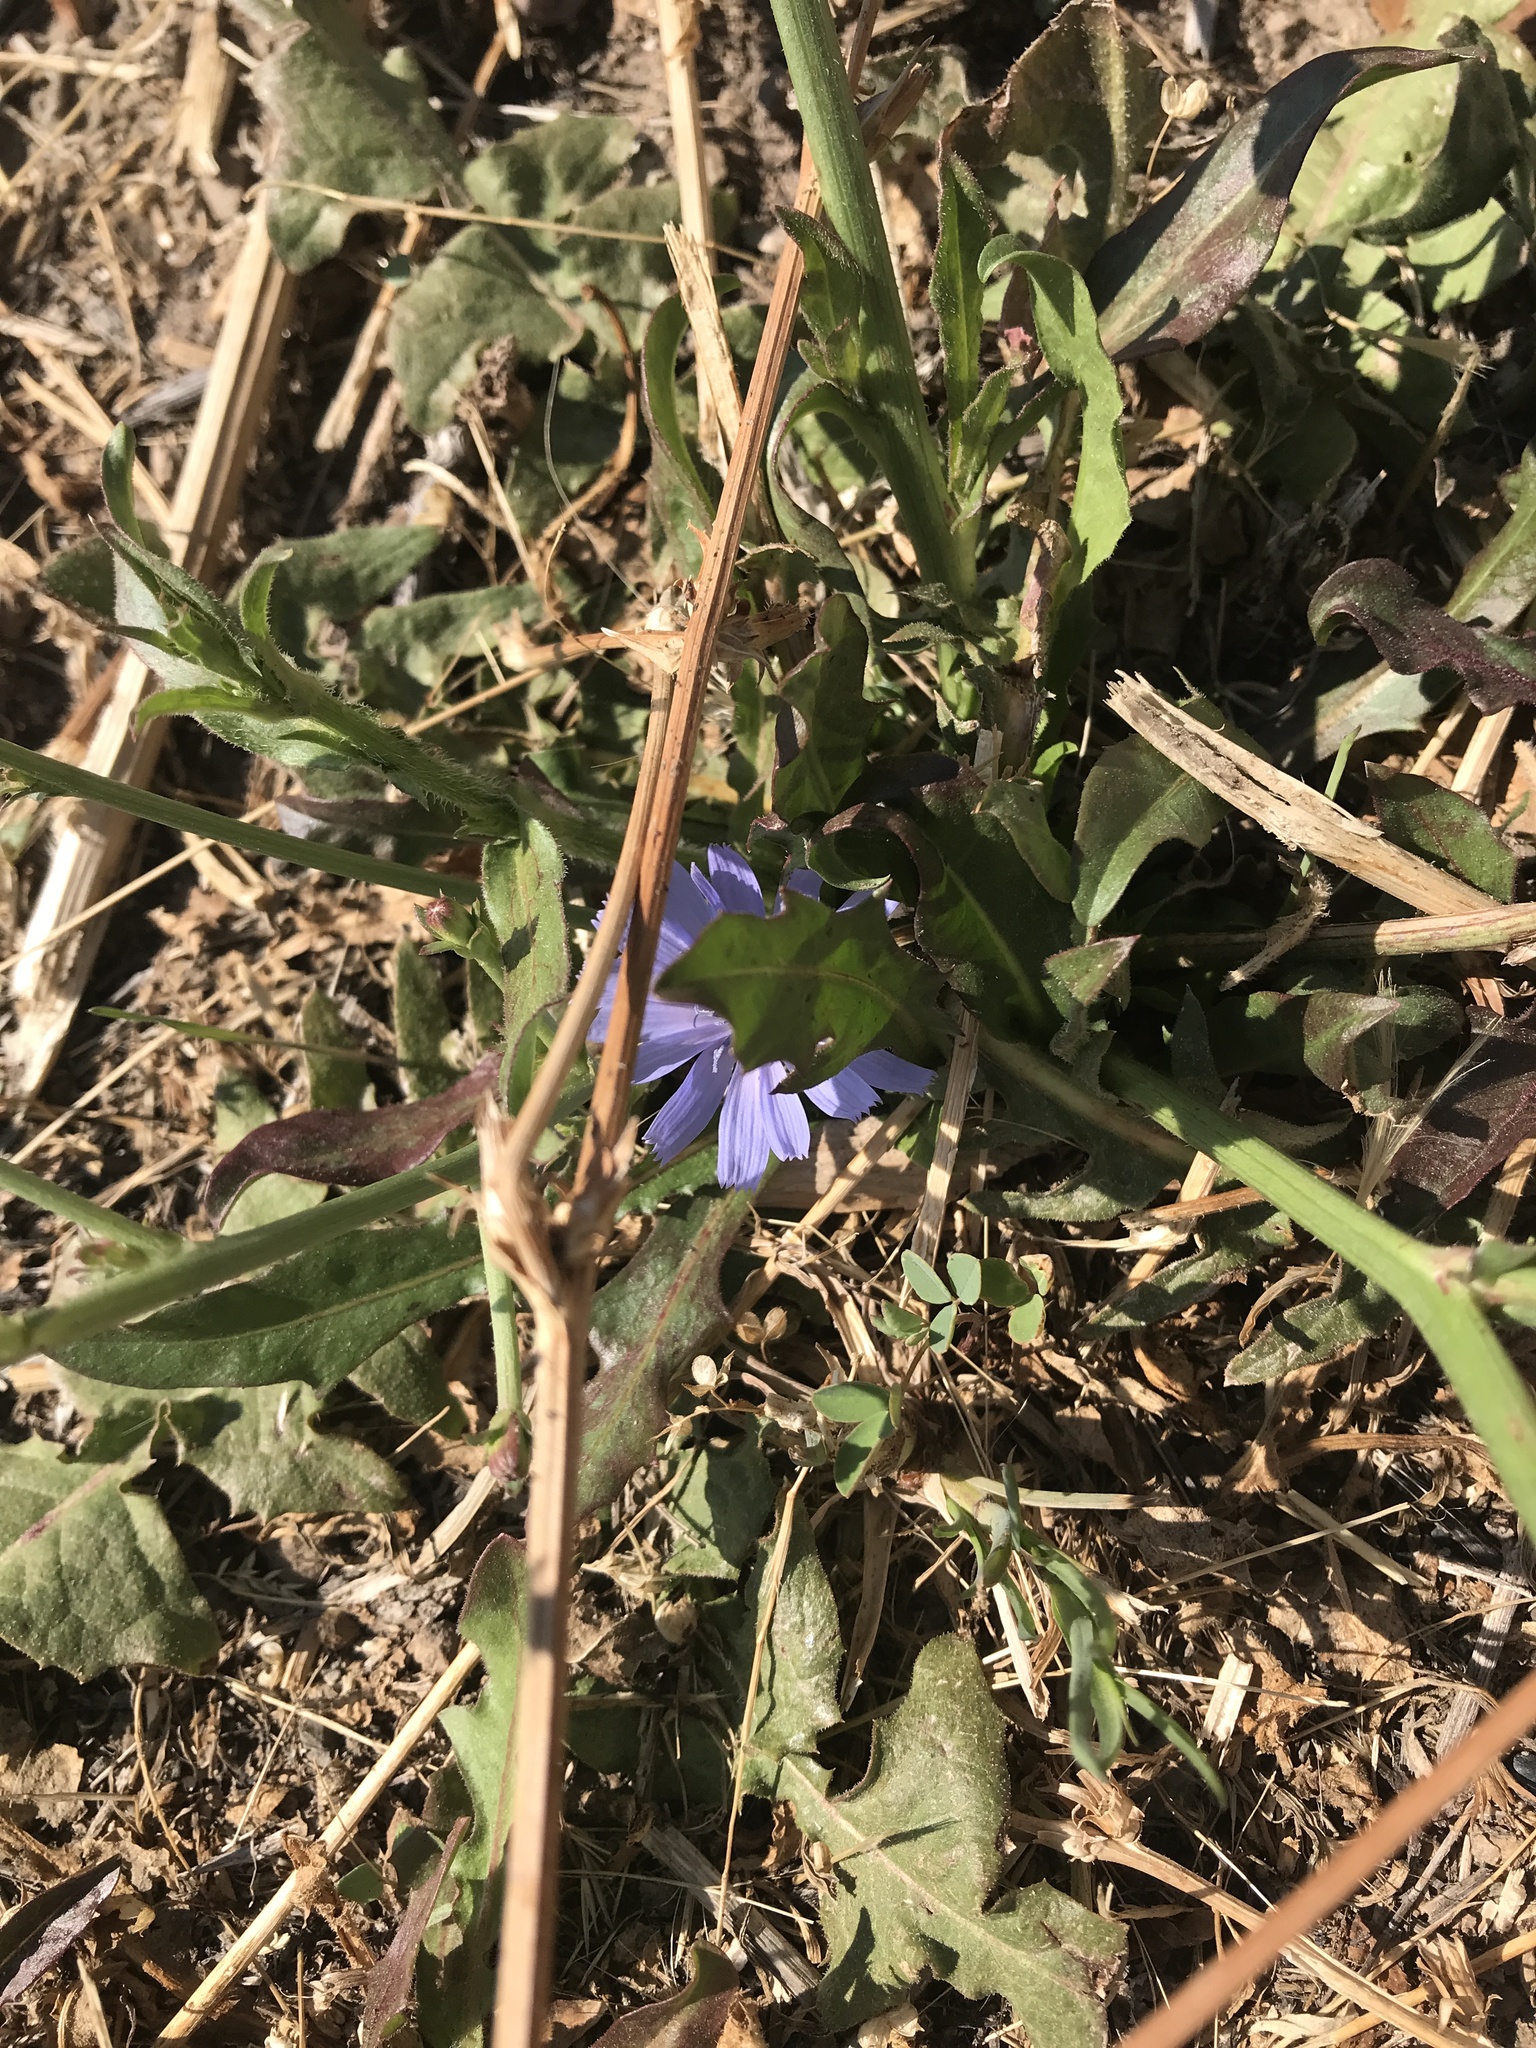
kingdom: Plantae
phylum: Tracheophyta
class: Magnoliopsida
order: Asterales
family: Asteraceae
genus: Cichorium
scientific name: Cichorium intybus
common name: Chicory
